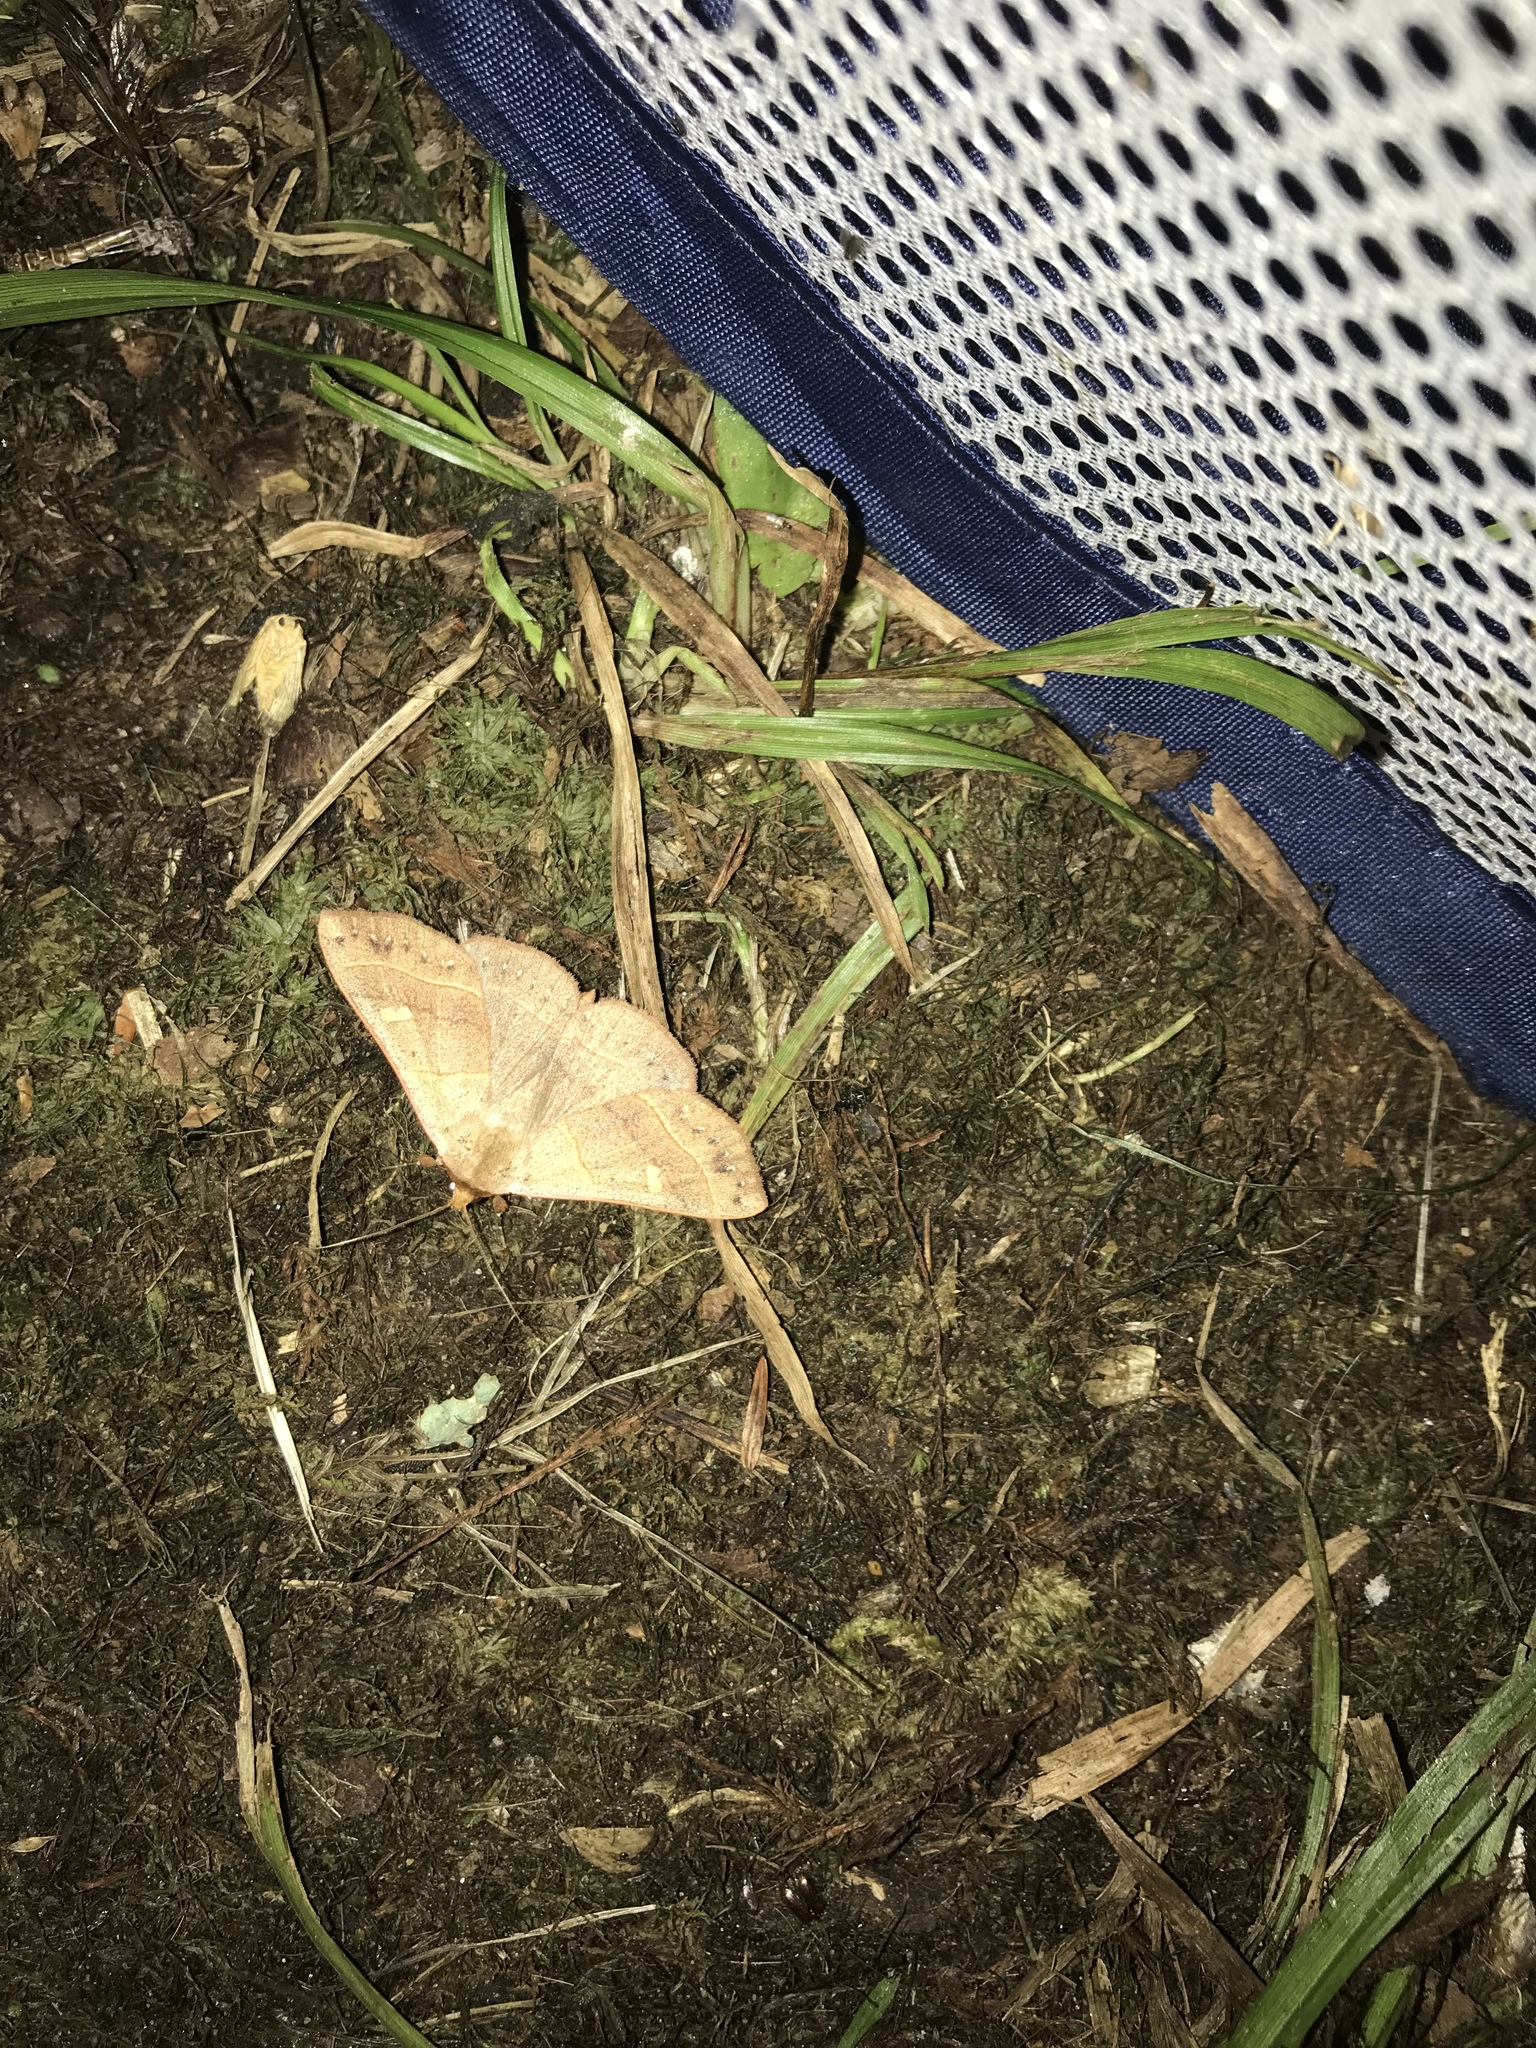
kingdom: Animalia
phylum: Arthropoda
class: Insecta
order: Lepidoptera
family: Erebidae
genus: Panopoda
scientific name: Panopoda rufimargo
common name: Red-lined panopoda moth
